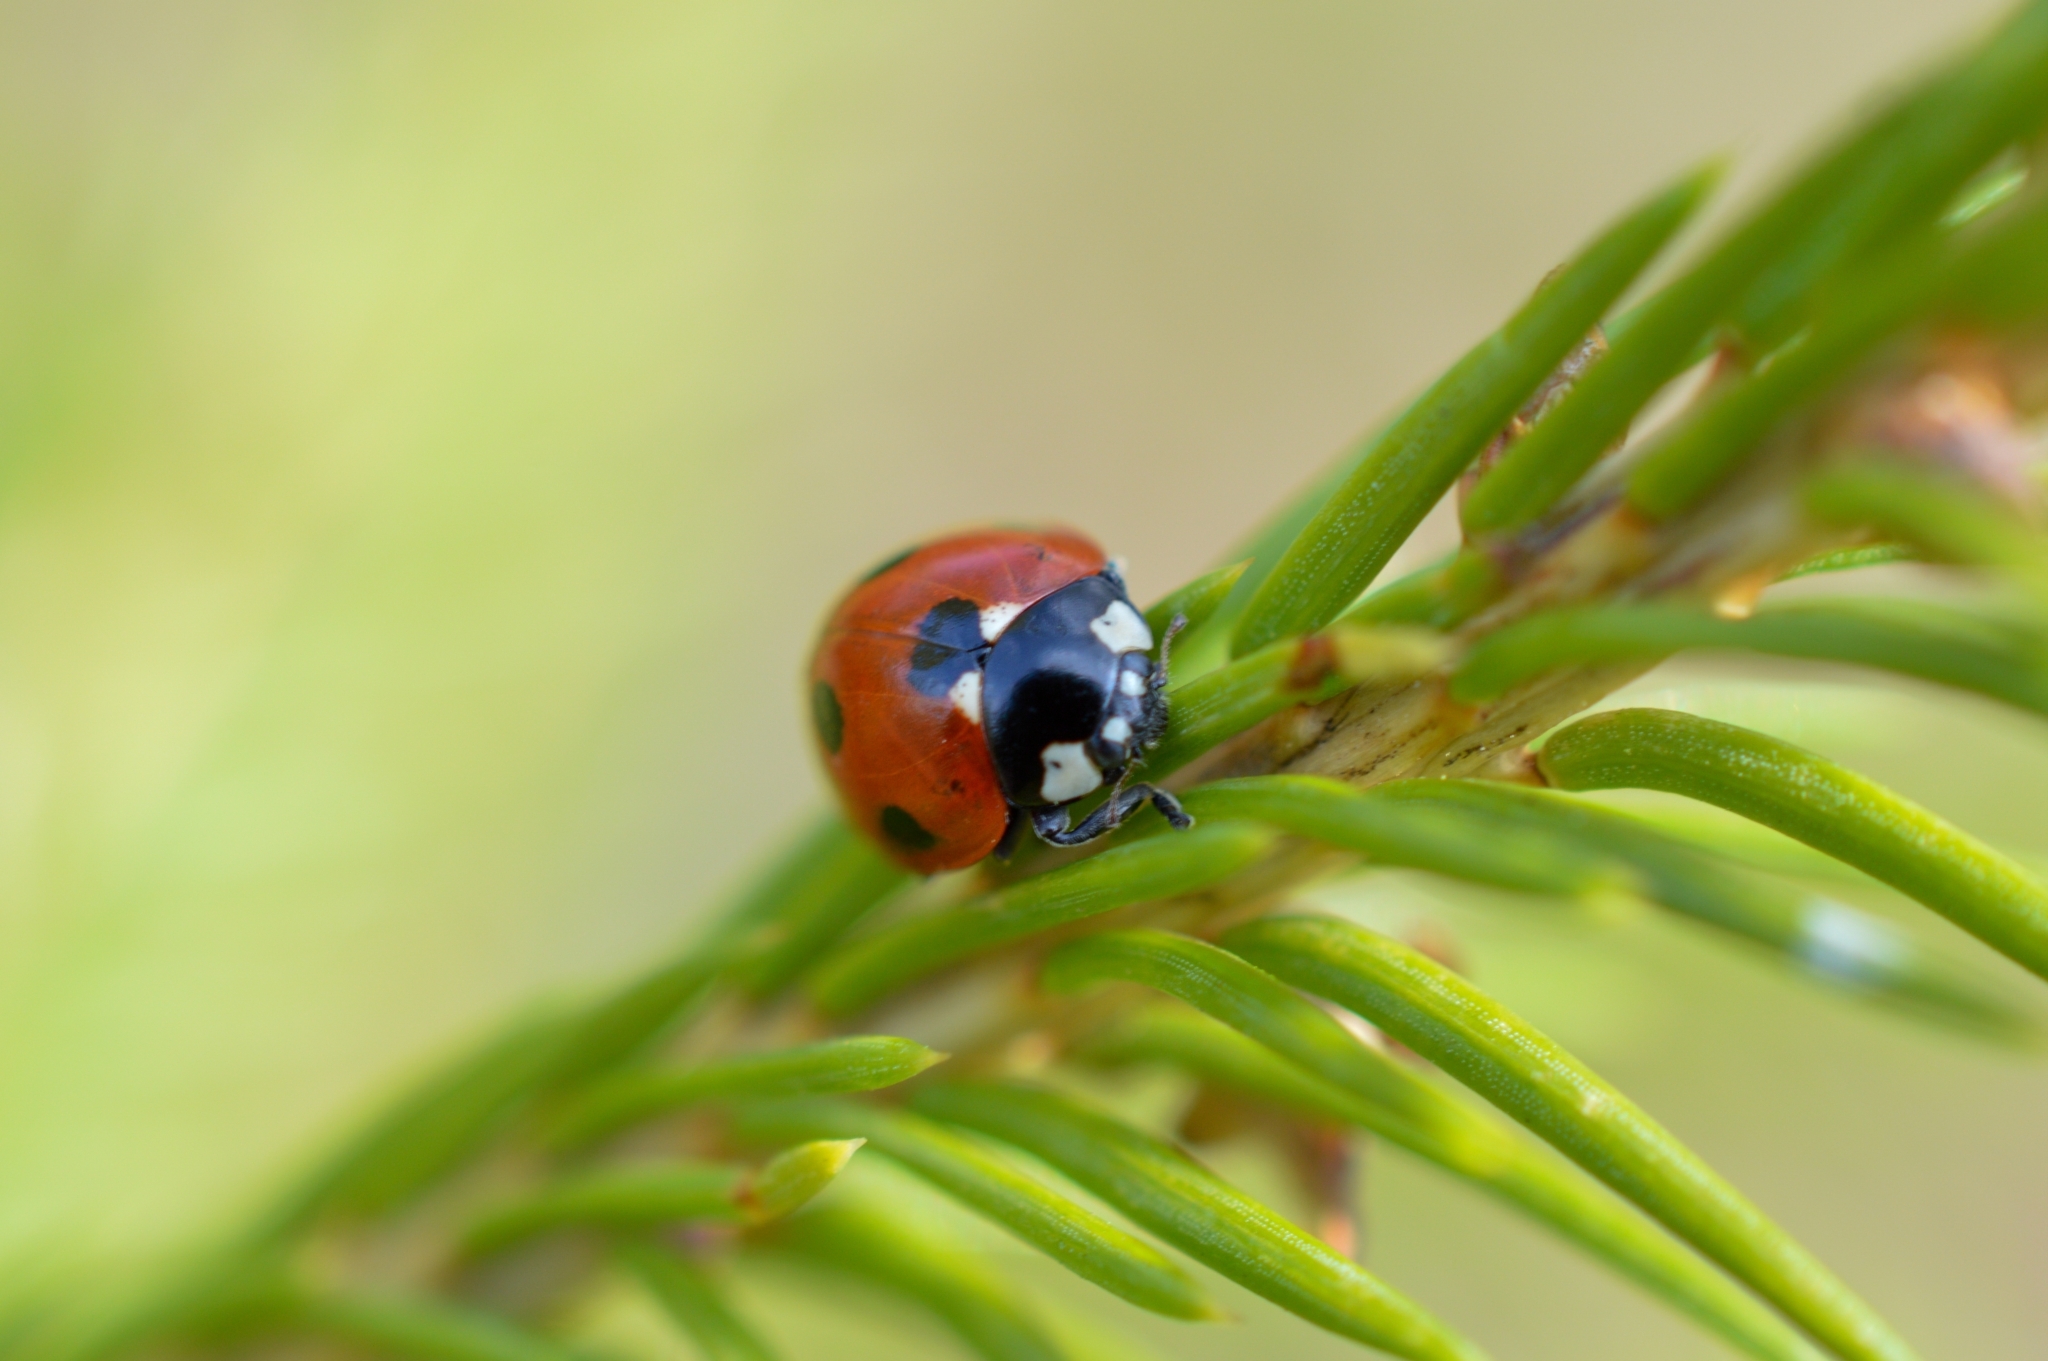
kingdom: Animalia
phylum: Arthropoda
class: Insecta
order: Coleoptera
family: Coccinellidae
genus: Coccinella
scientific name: Coccinella septempunctata
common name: Sevenspotted lady beetle
